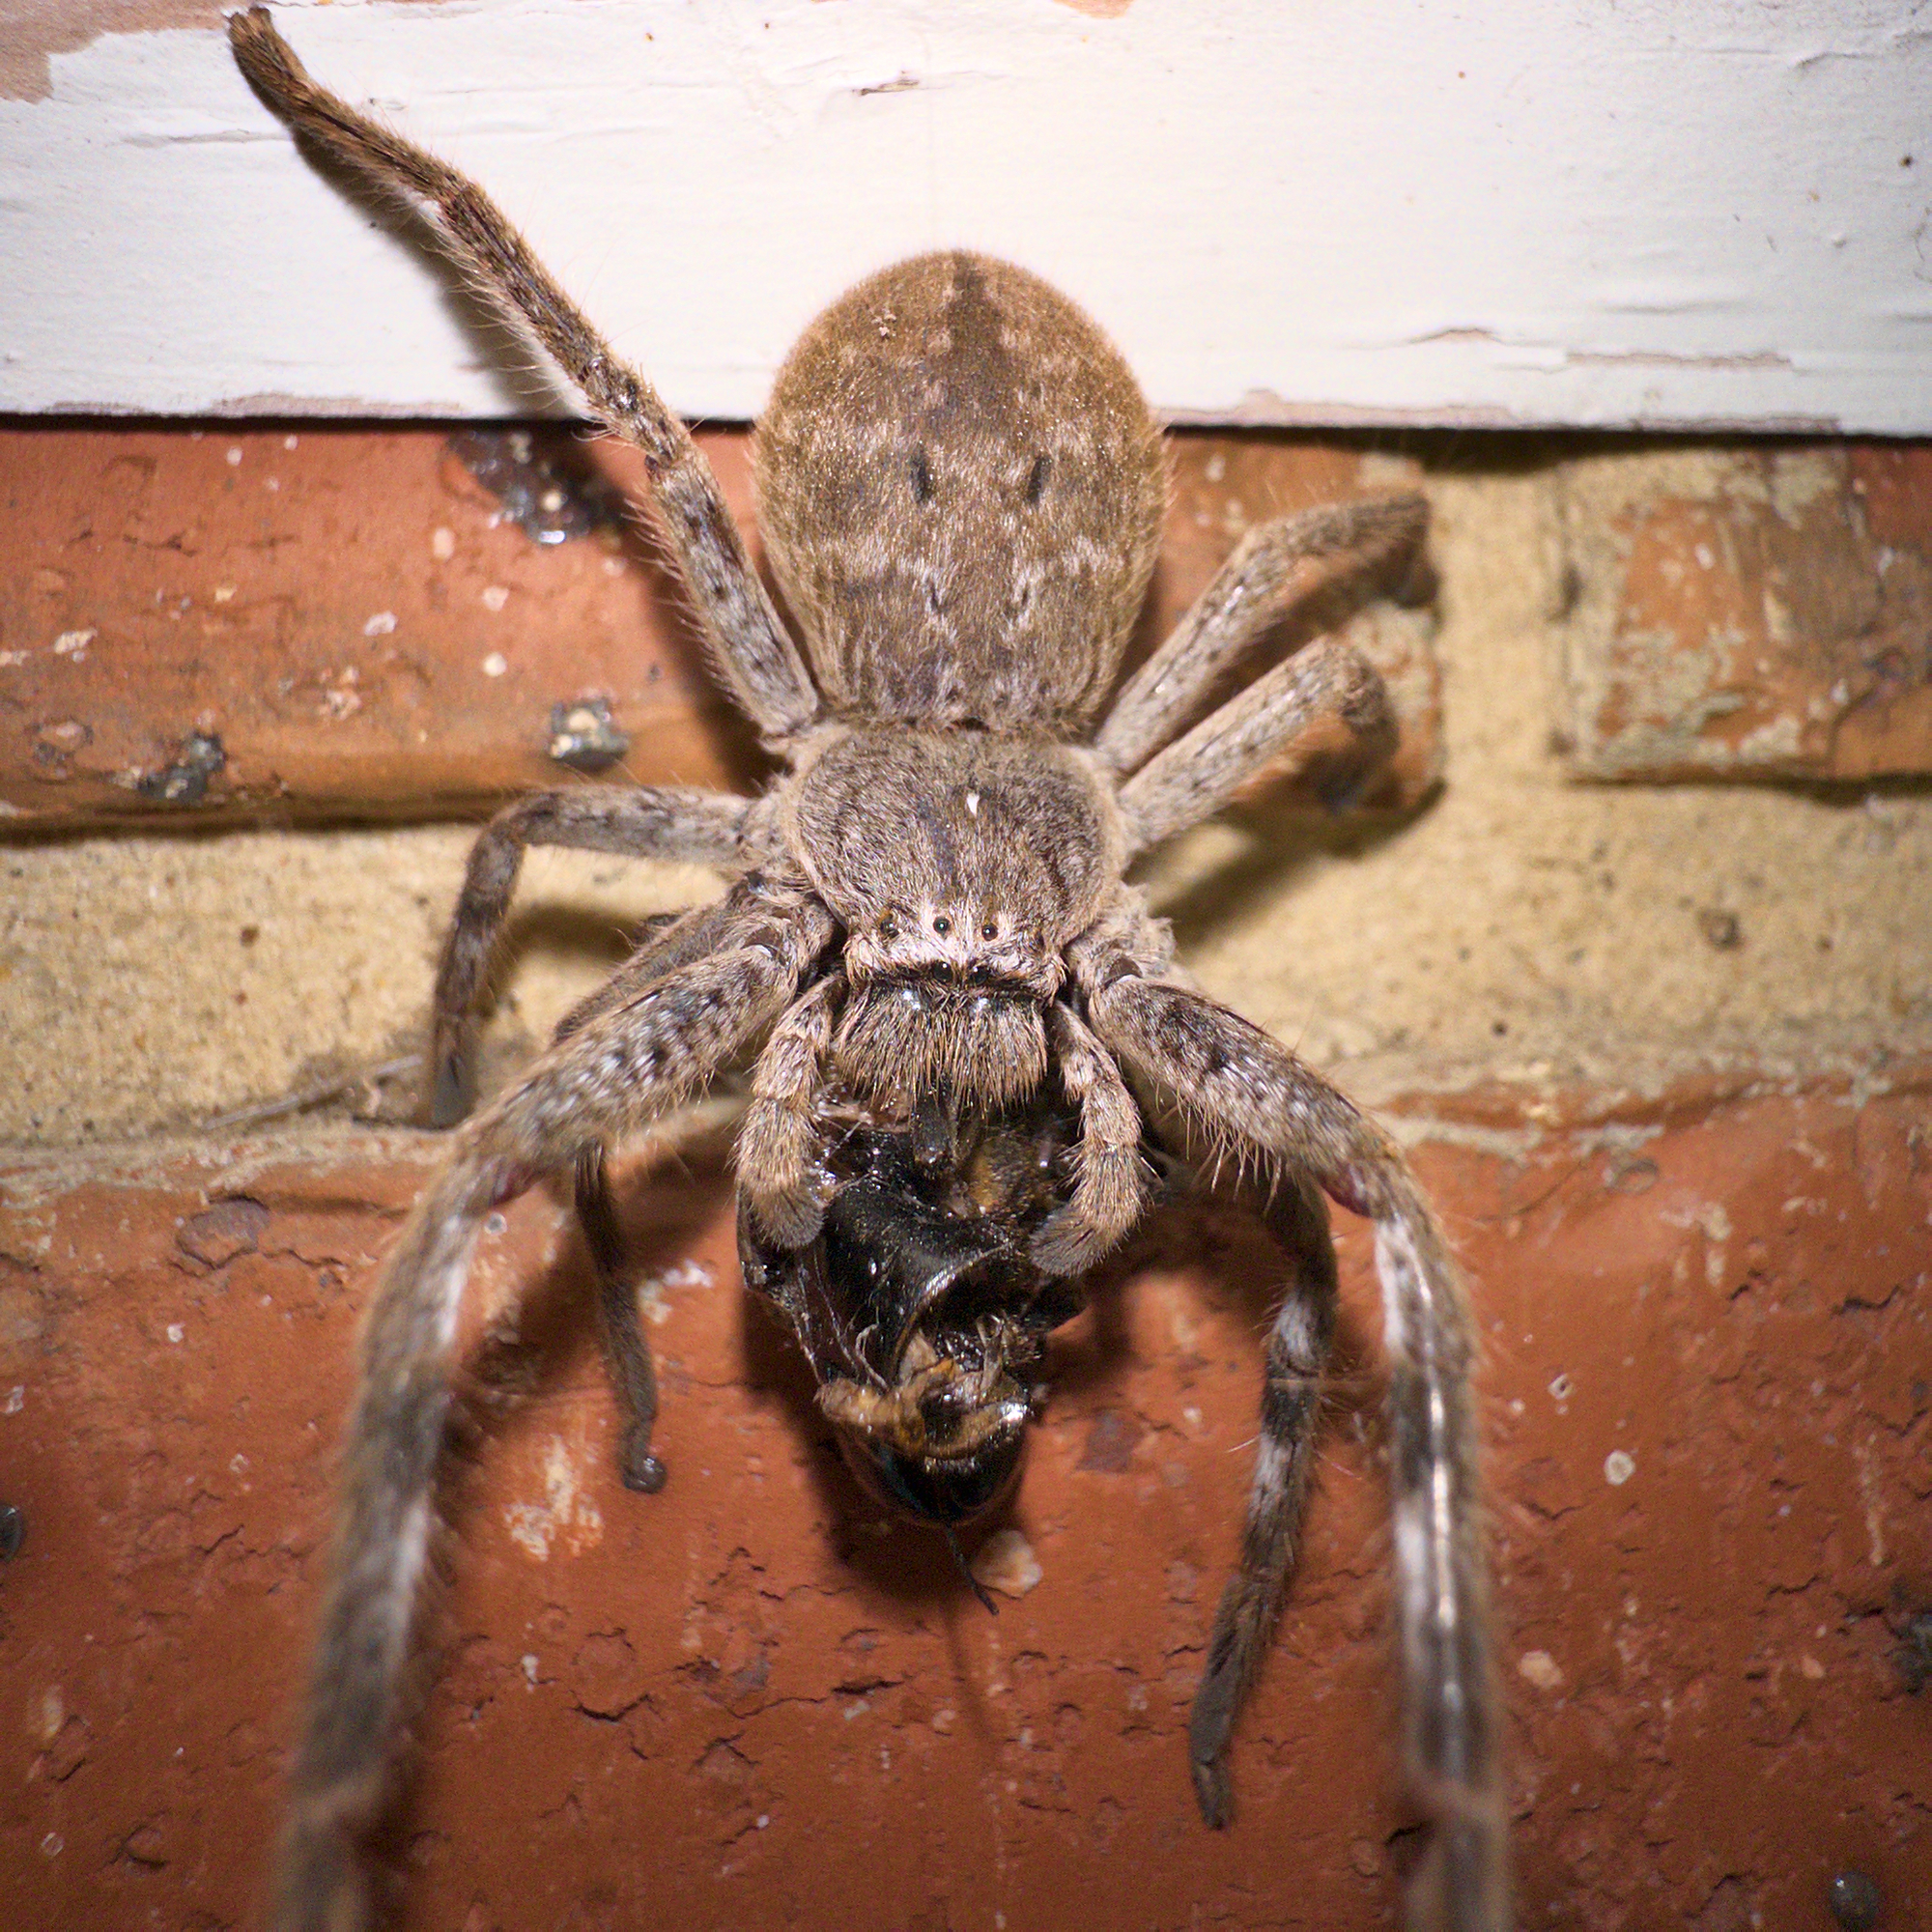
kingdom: Animalia
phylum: Arthropoda
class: Arachnida
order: Araneae
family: Sparassidae
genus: Isopedella
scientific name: Isopedella victorialis
